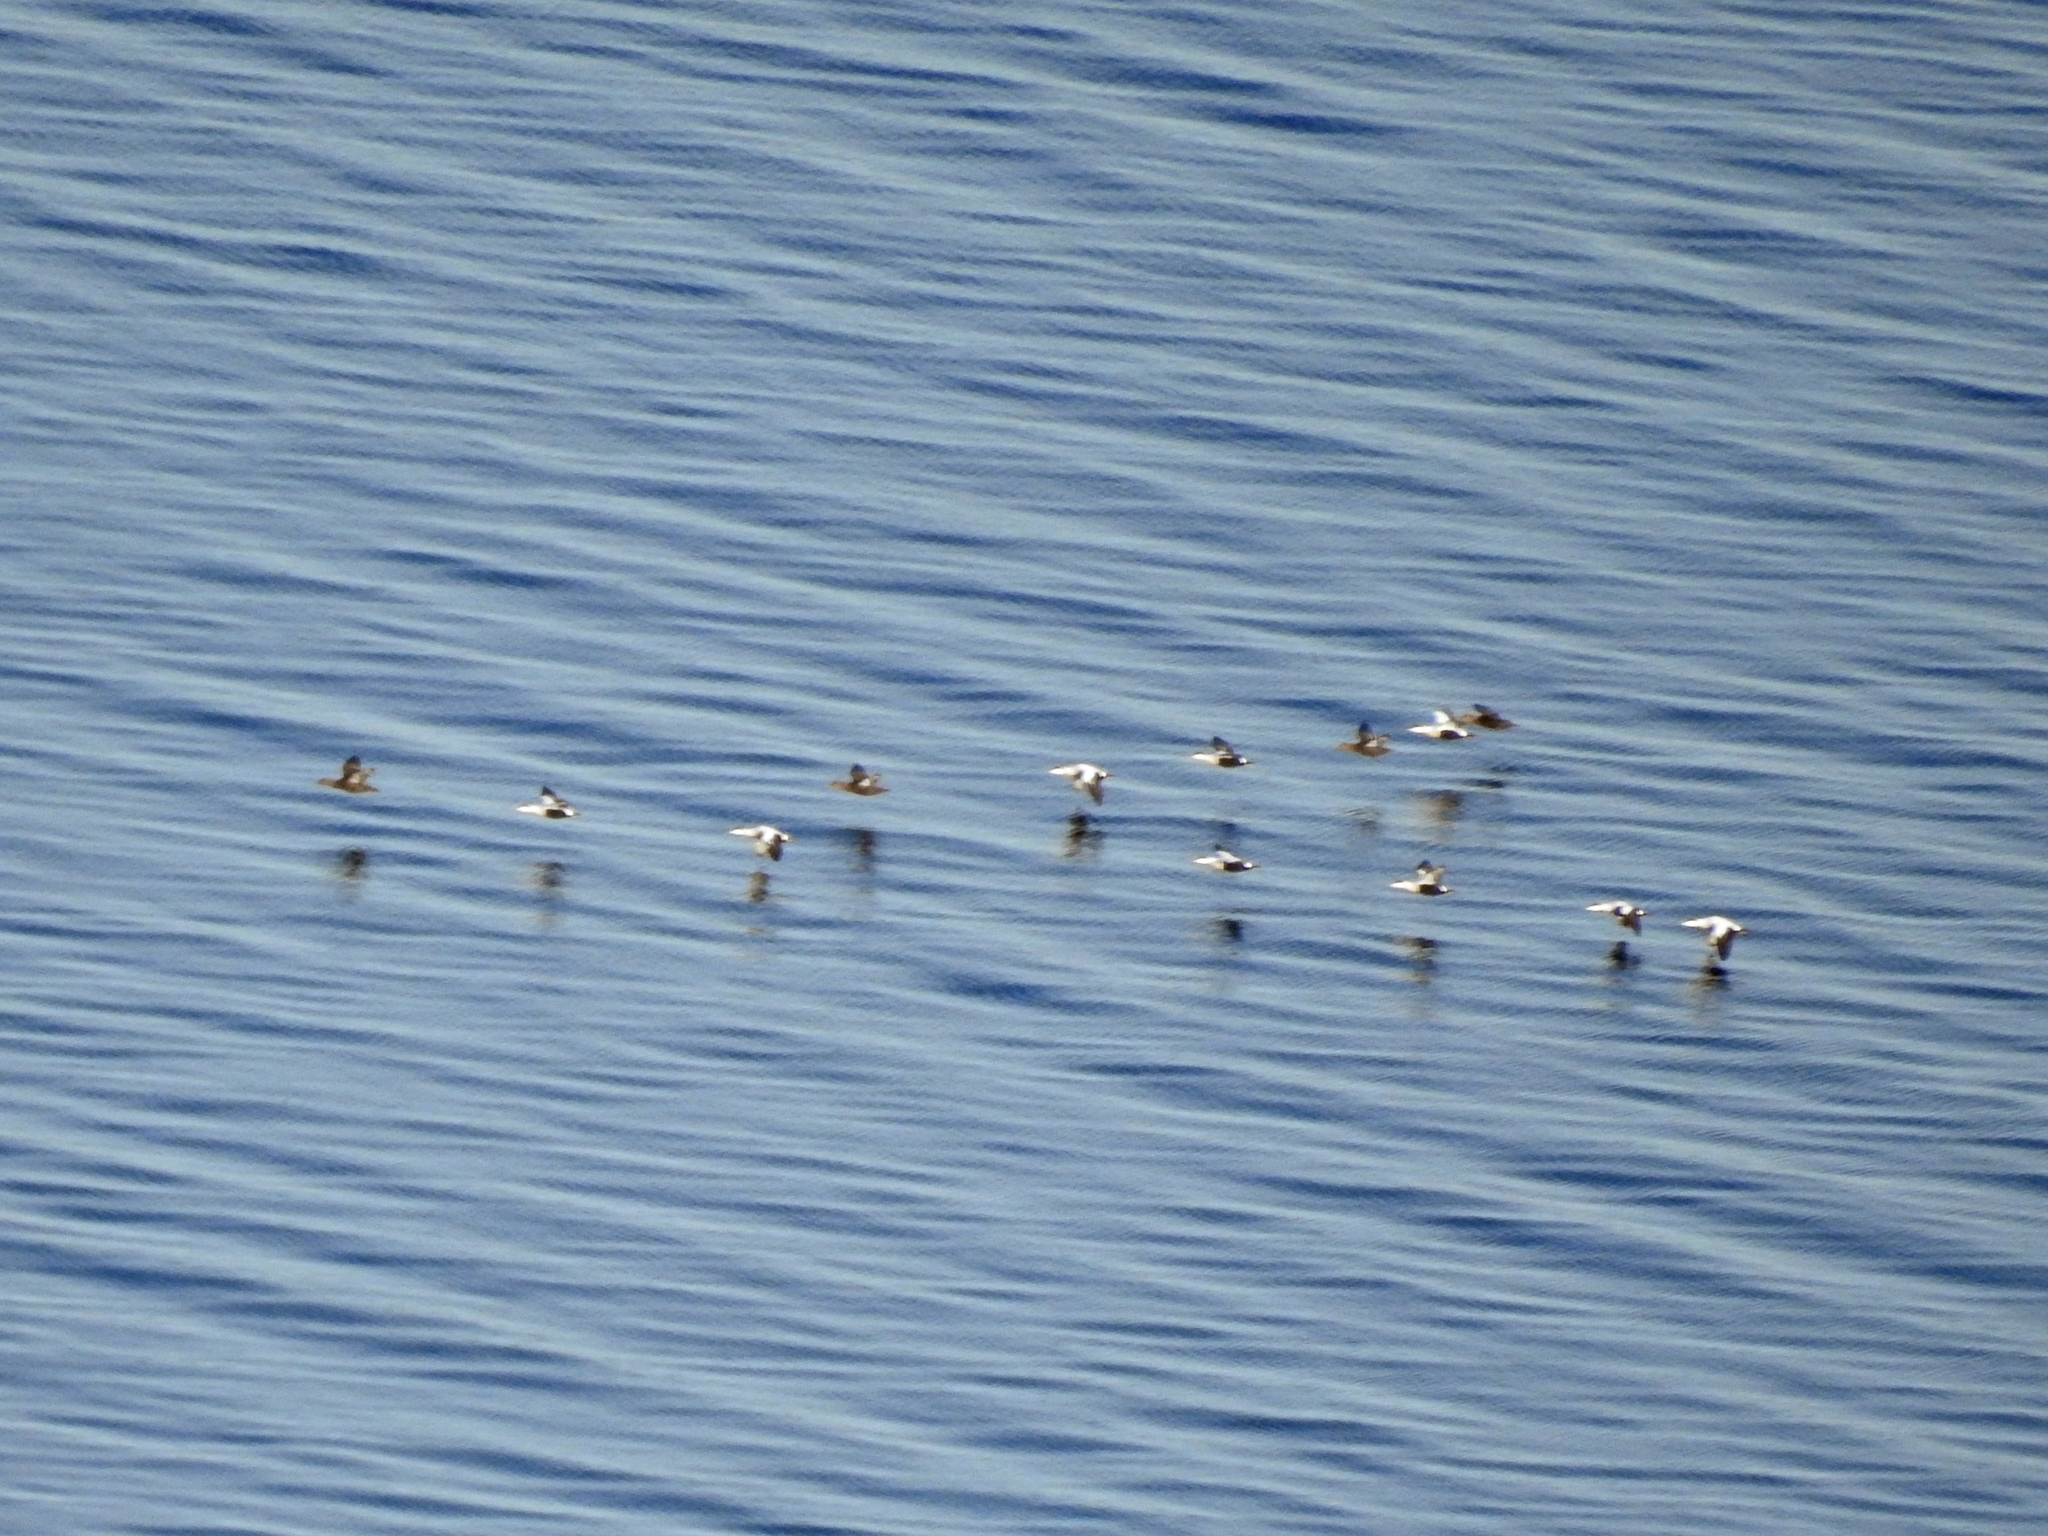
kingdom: Animalia
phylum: Chordata
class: Aves
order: Anseriformes
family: Anatidae
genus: Somateria
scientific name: Somateria mollissima
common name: Common eider
